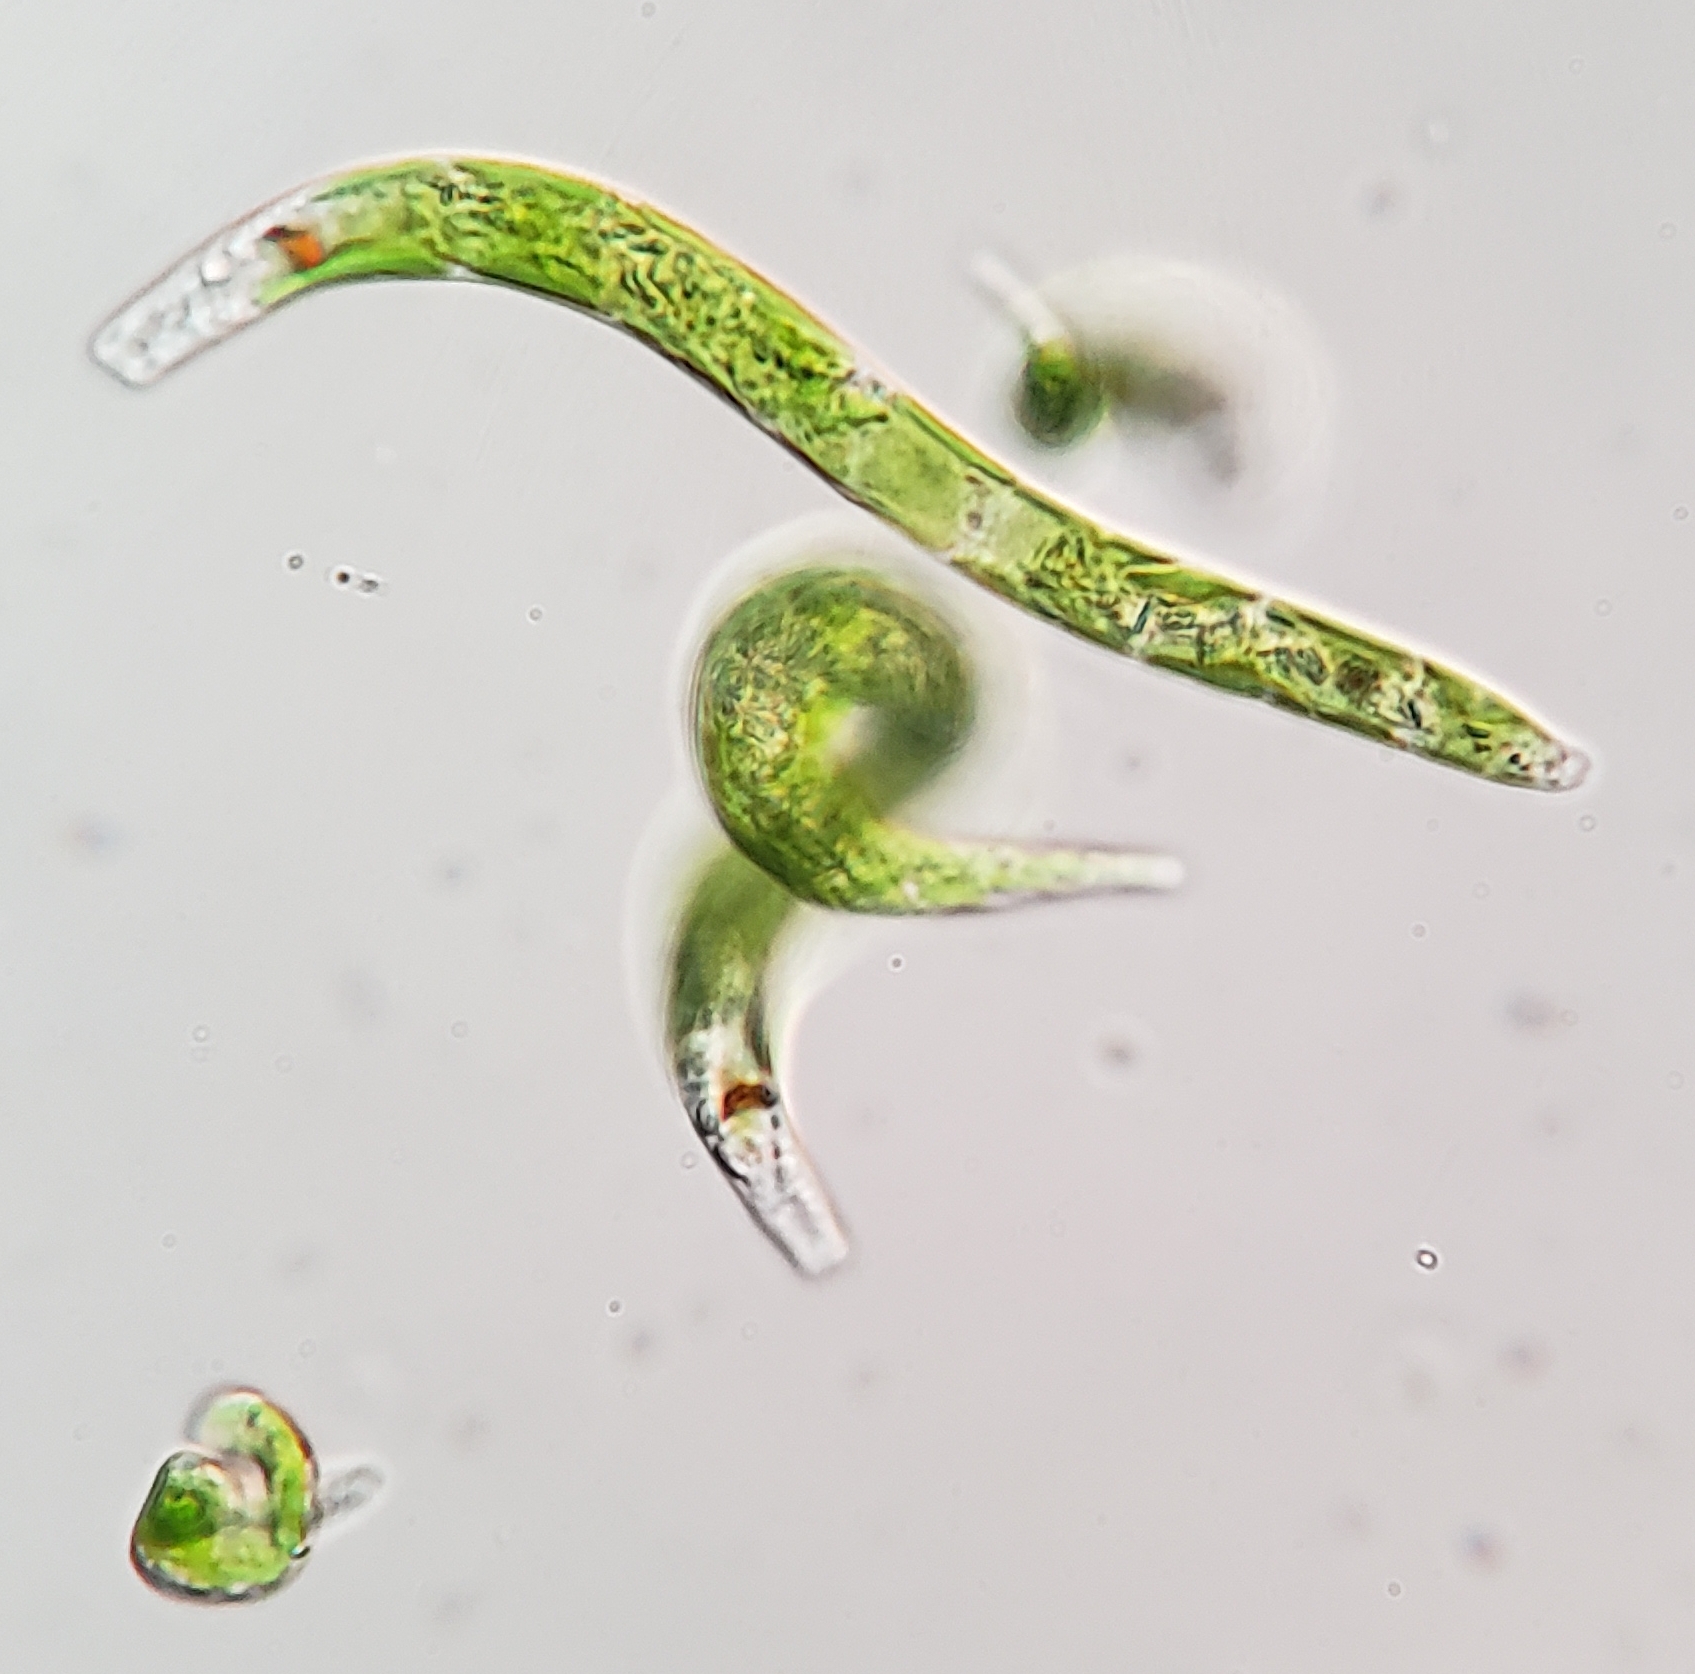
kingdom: Protozoa
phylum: Euglenozoa
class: Euglenoidea
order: Euglenida
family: Euglenaceae
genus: Euglena
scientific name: Euglena mutabilis
